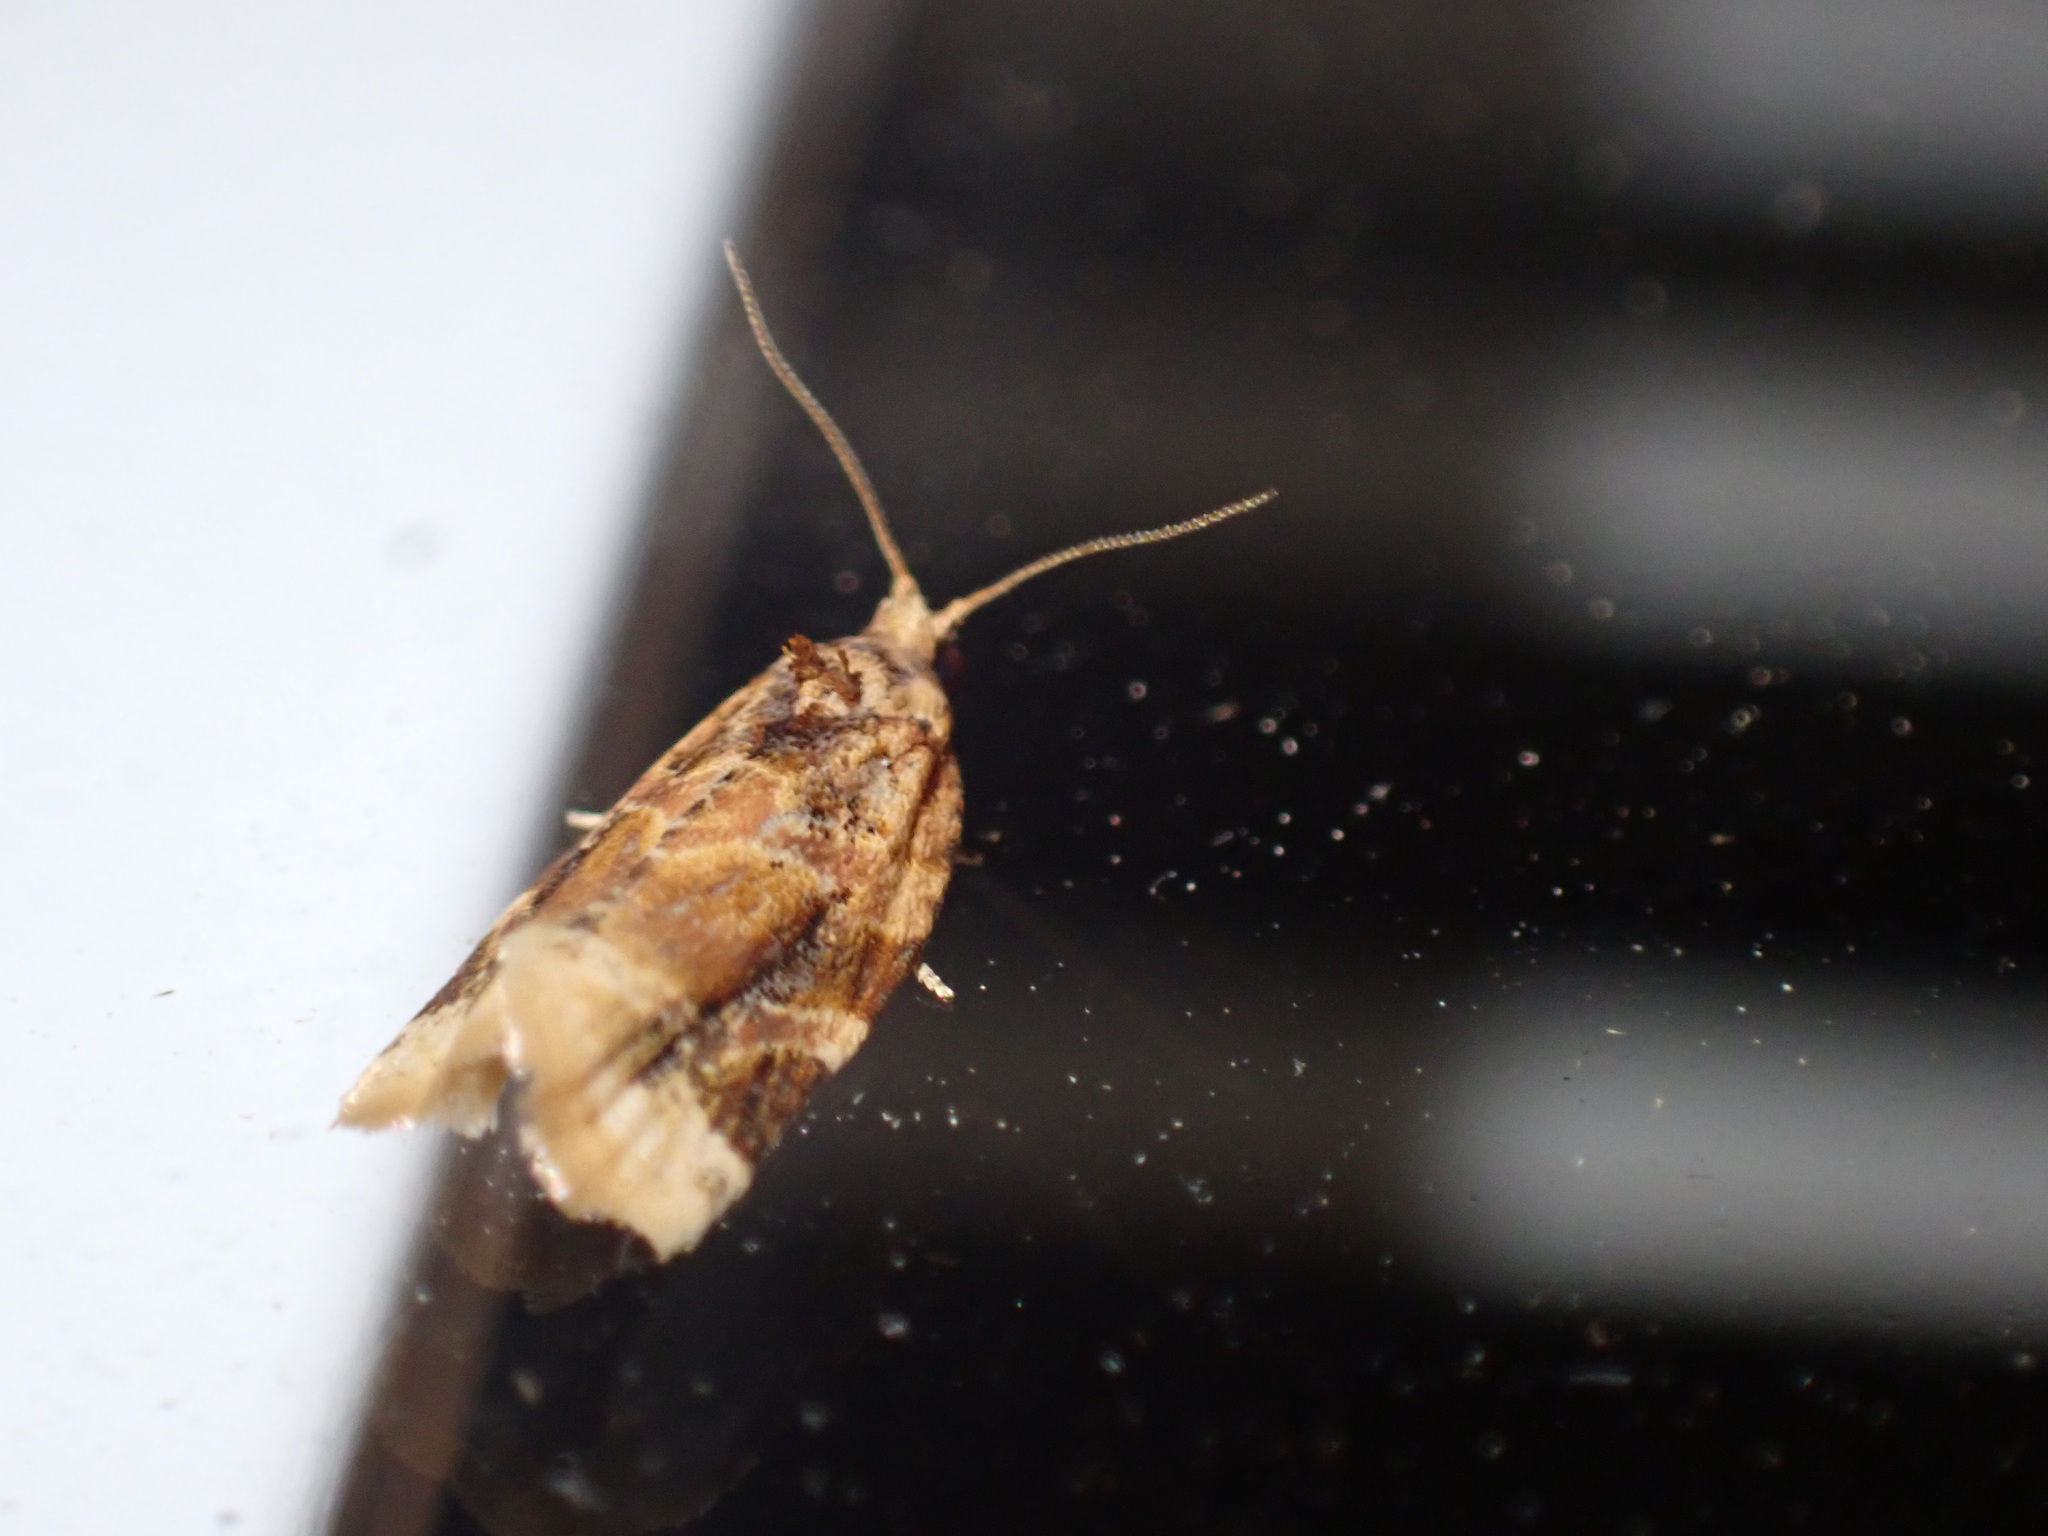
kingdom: Animalia
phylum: Arthropoda
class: Insecta
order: Lepidoptera
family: Tortricidae
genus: Argyrotaenia
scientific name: Argyrotaenia velutinana
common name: Red-banded leafroller moth
